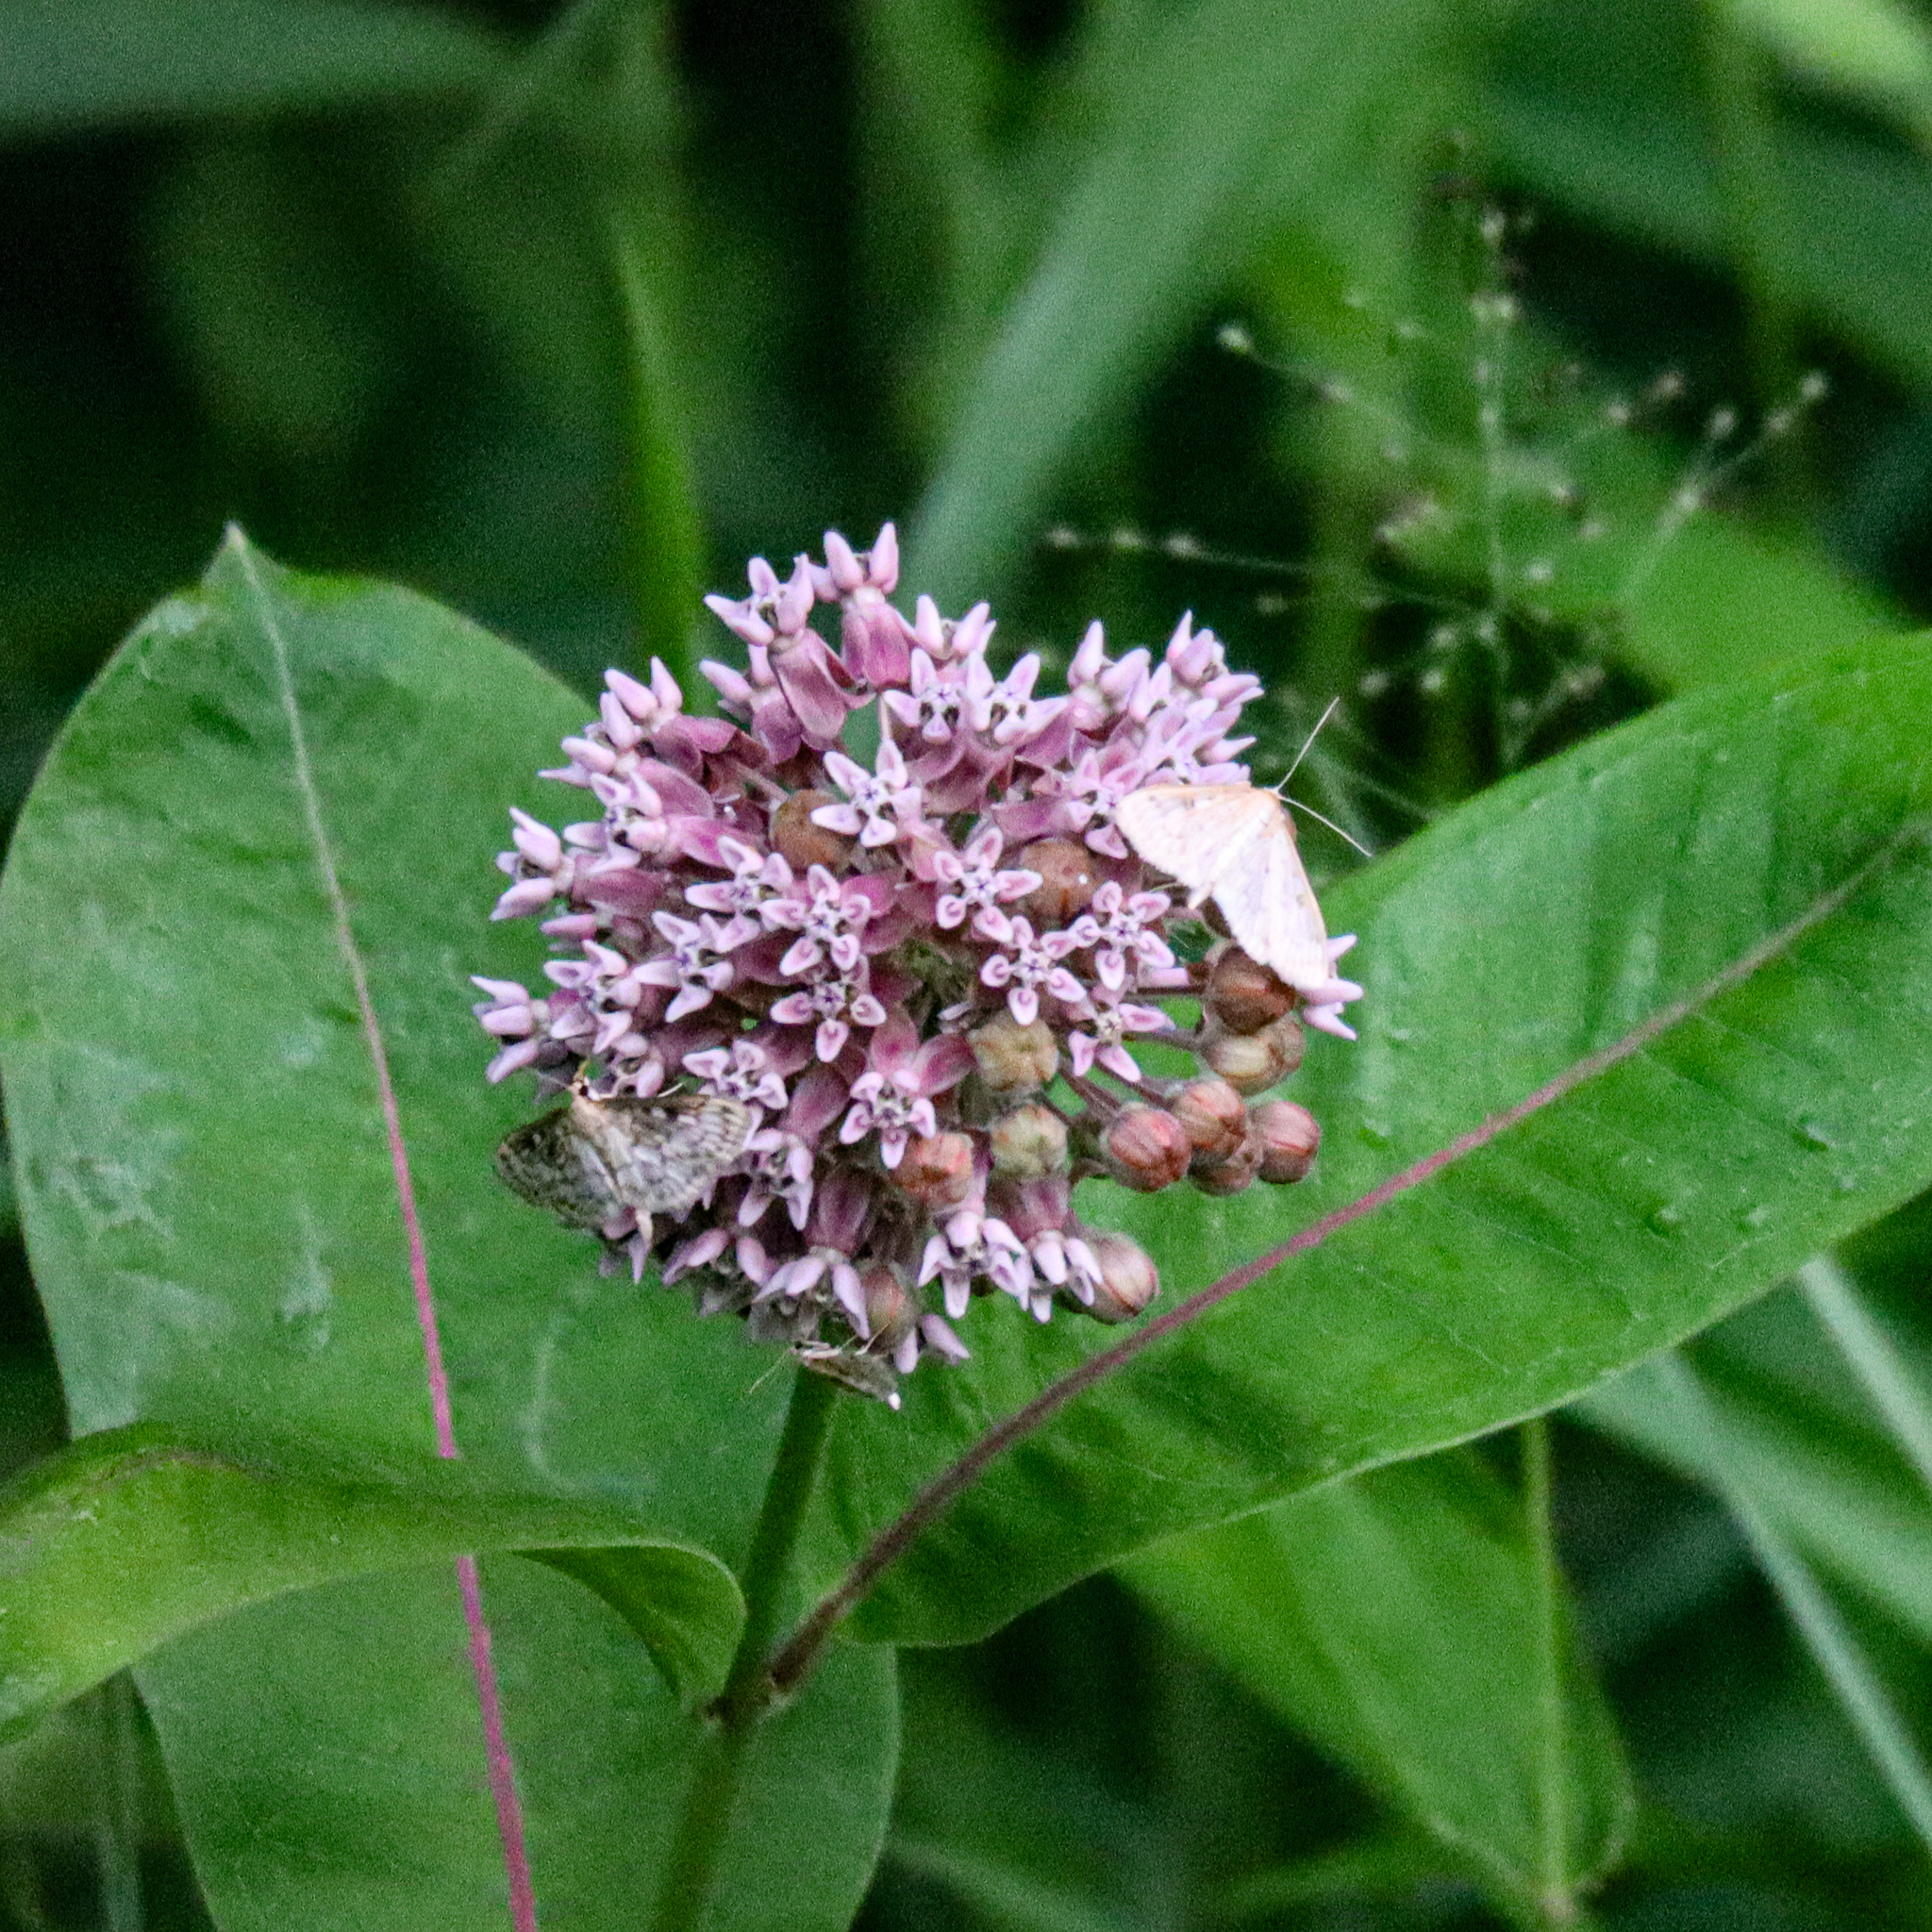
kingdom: Plantae
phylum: Tracheophyta
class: Magnoliopsida
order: Gentianales
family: Apocynaceae
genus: Asclepias
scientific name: Asclepias syriaca
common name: Common milkweed
